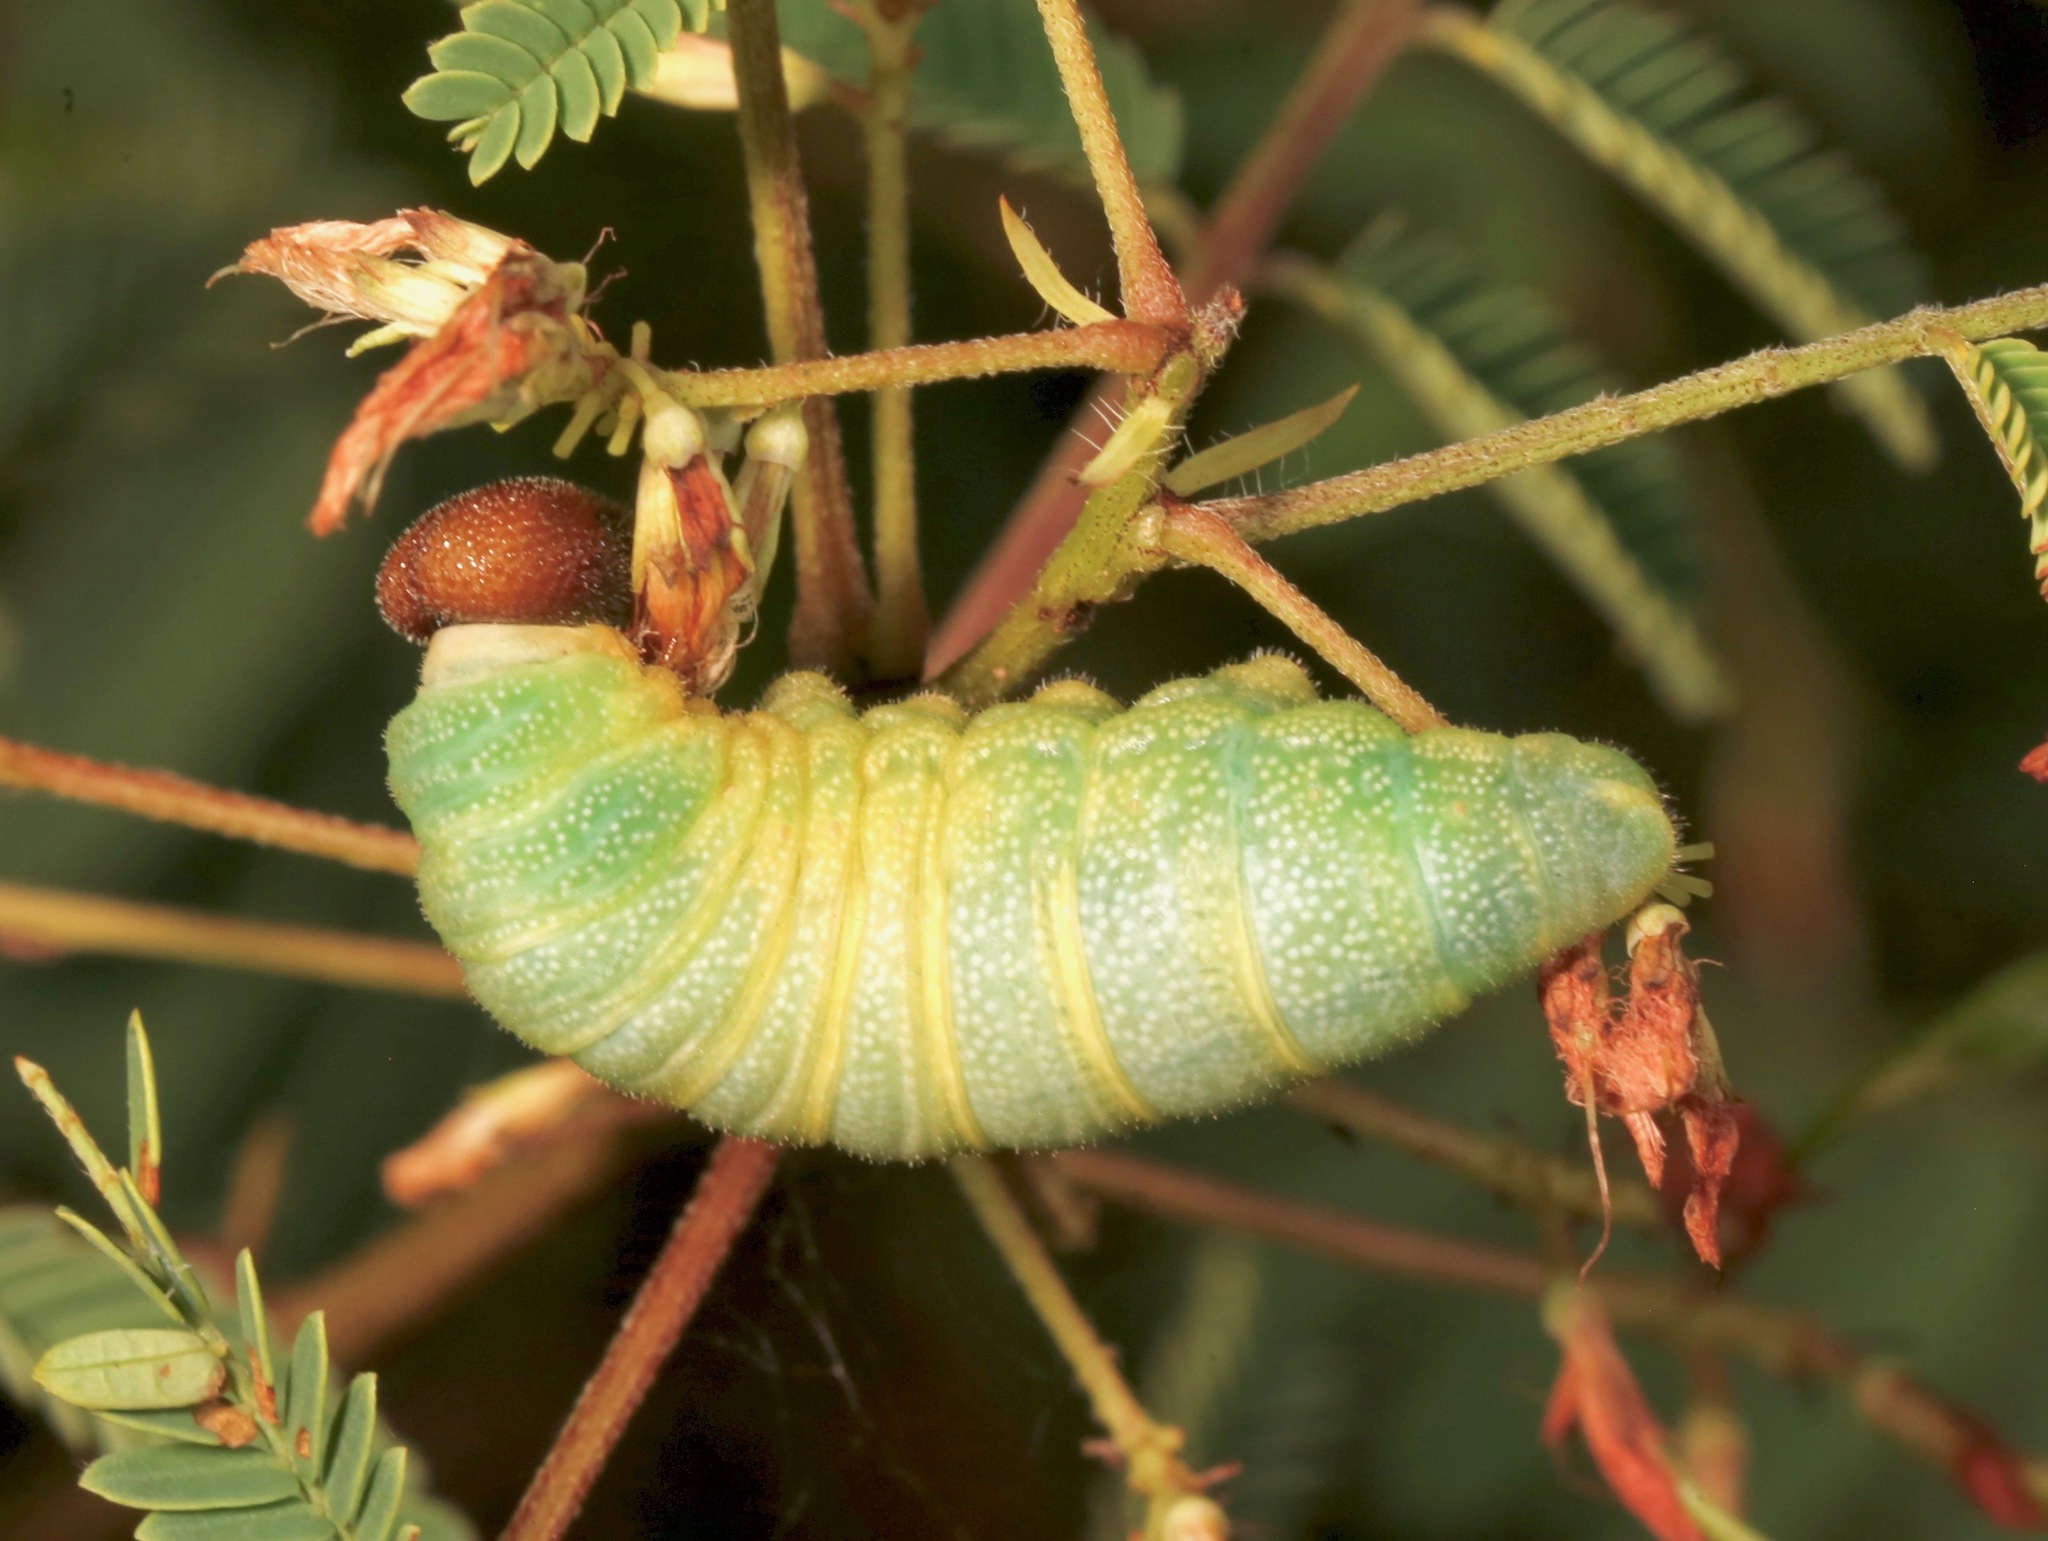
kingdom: Animalia
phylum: Arthropoda
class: Insecta
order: Lepidoptera
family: Hesperiidae
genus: Cogia
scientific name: Cogia hippalus
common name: Acacia skipper
